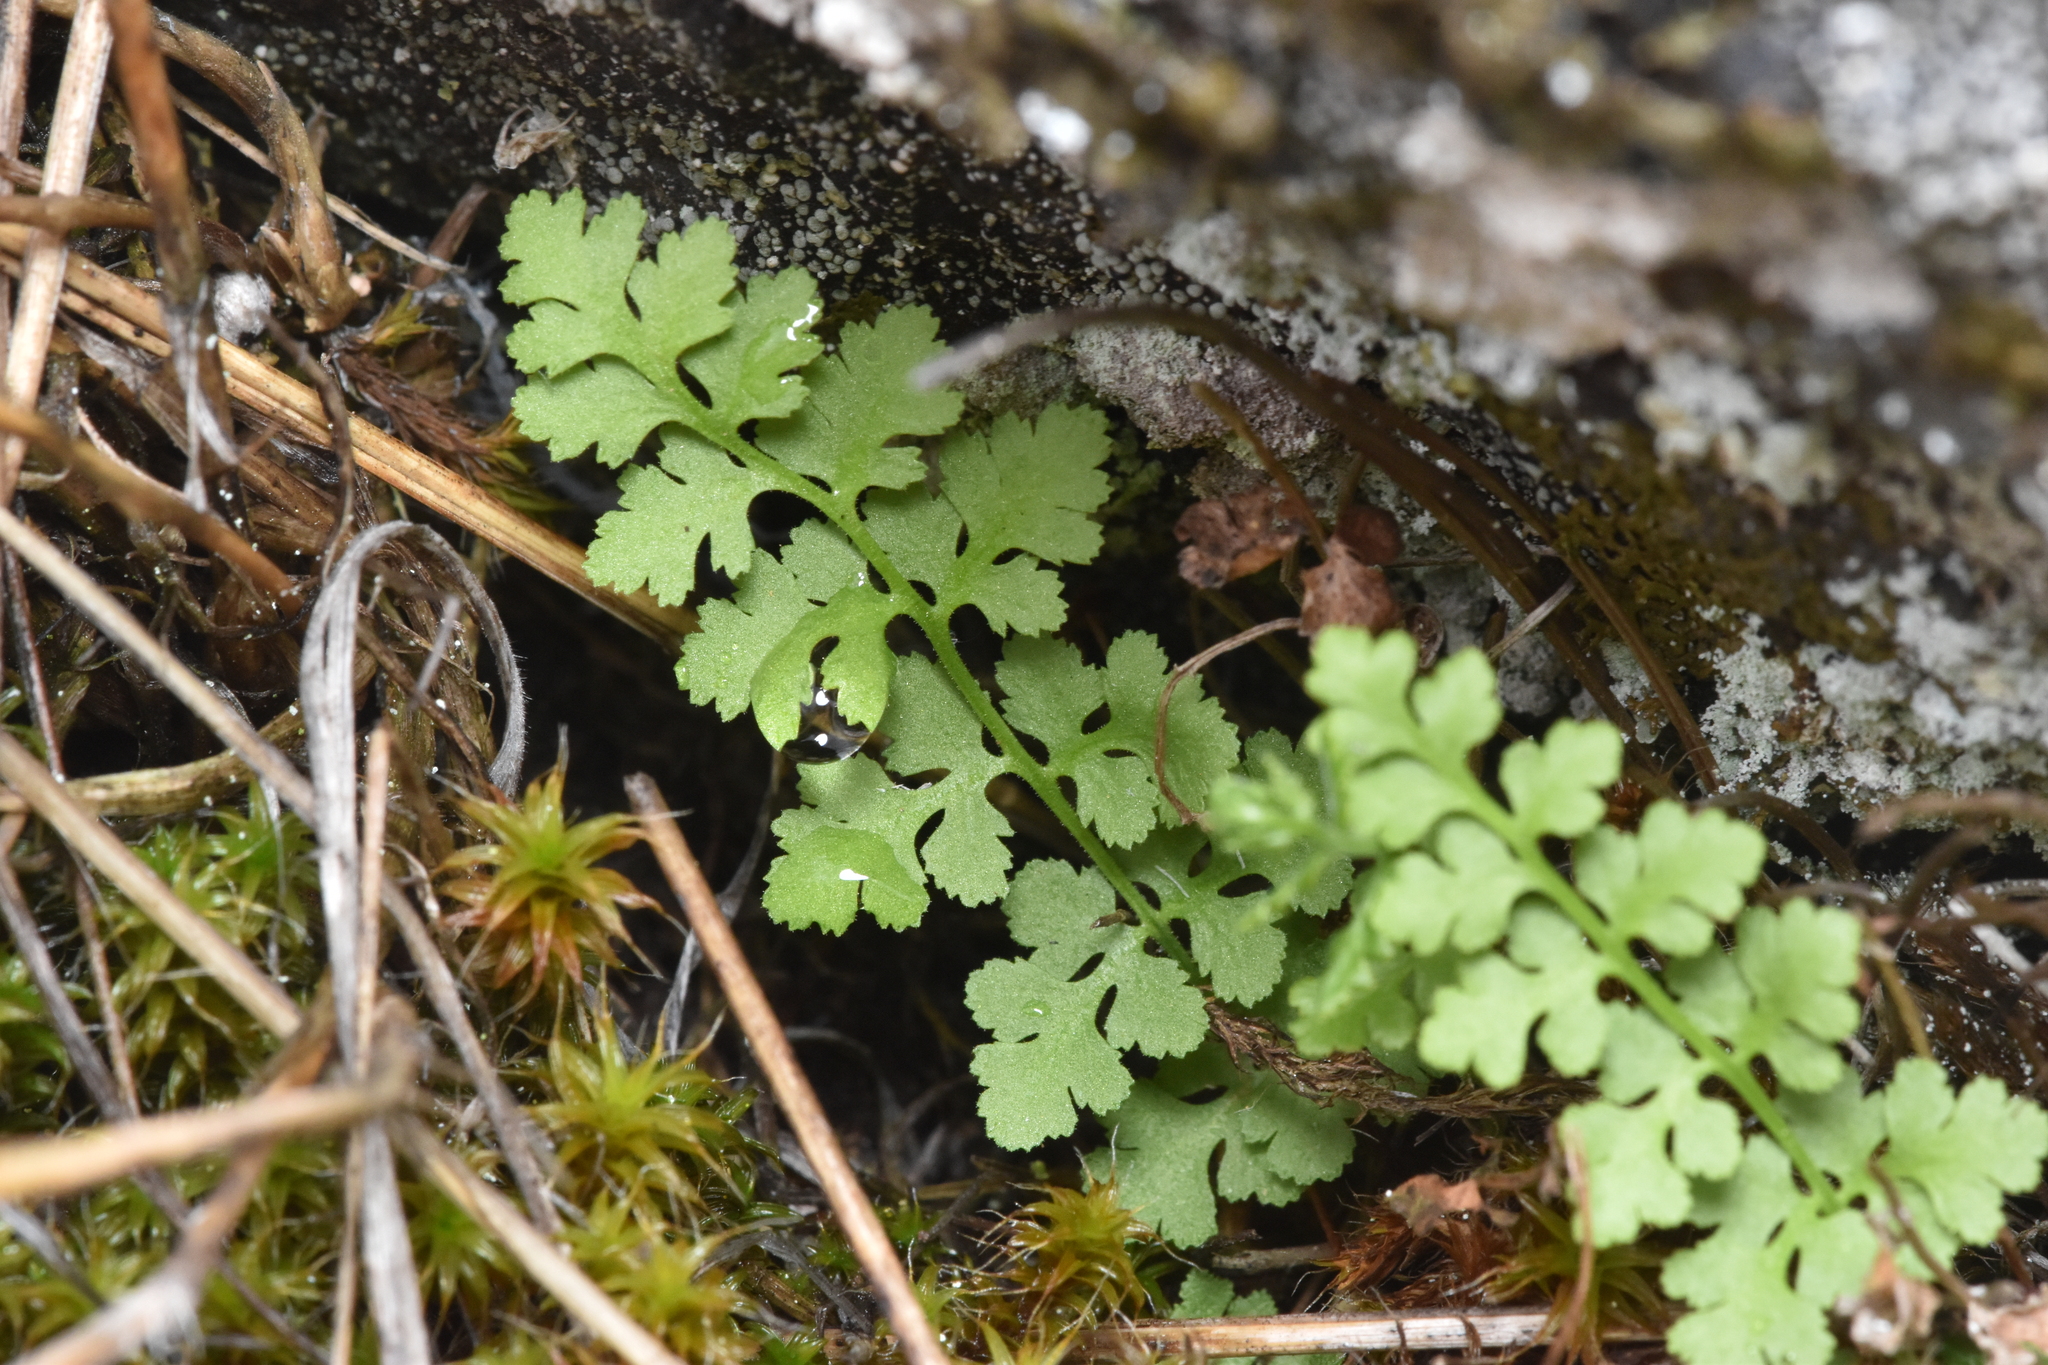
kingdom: Plantae
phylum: Tracheophyta
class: Polypodiopsida
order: Polypodiales
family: Woodsiaceae
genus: Physematium
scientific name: Physematium oreganum
